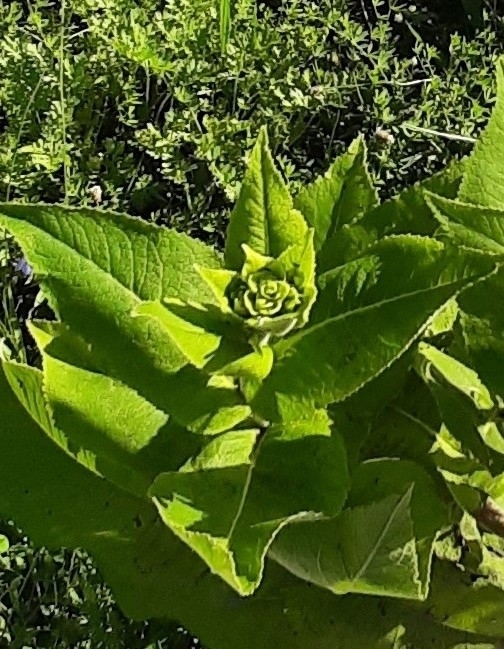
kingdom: Plantae
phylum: Tracheophyta
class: Magnoliopsida
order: Asterales
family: Asteraceae
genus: Inula
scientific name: Inula helenium
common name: Elecampane
